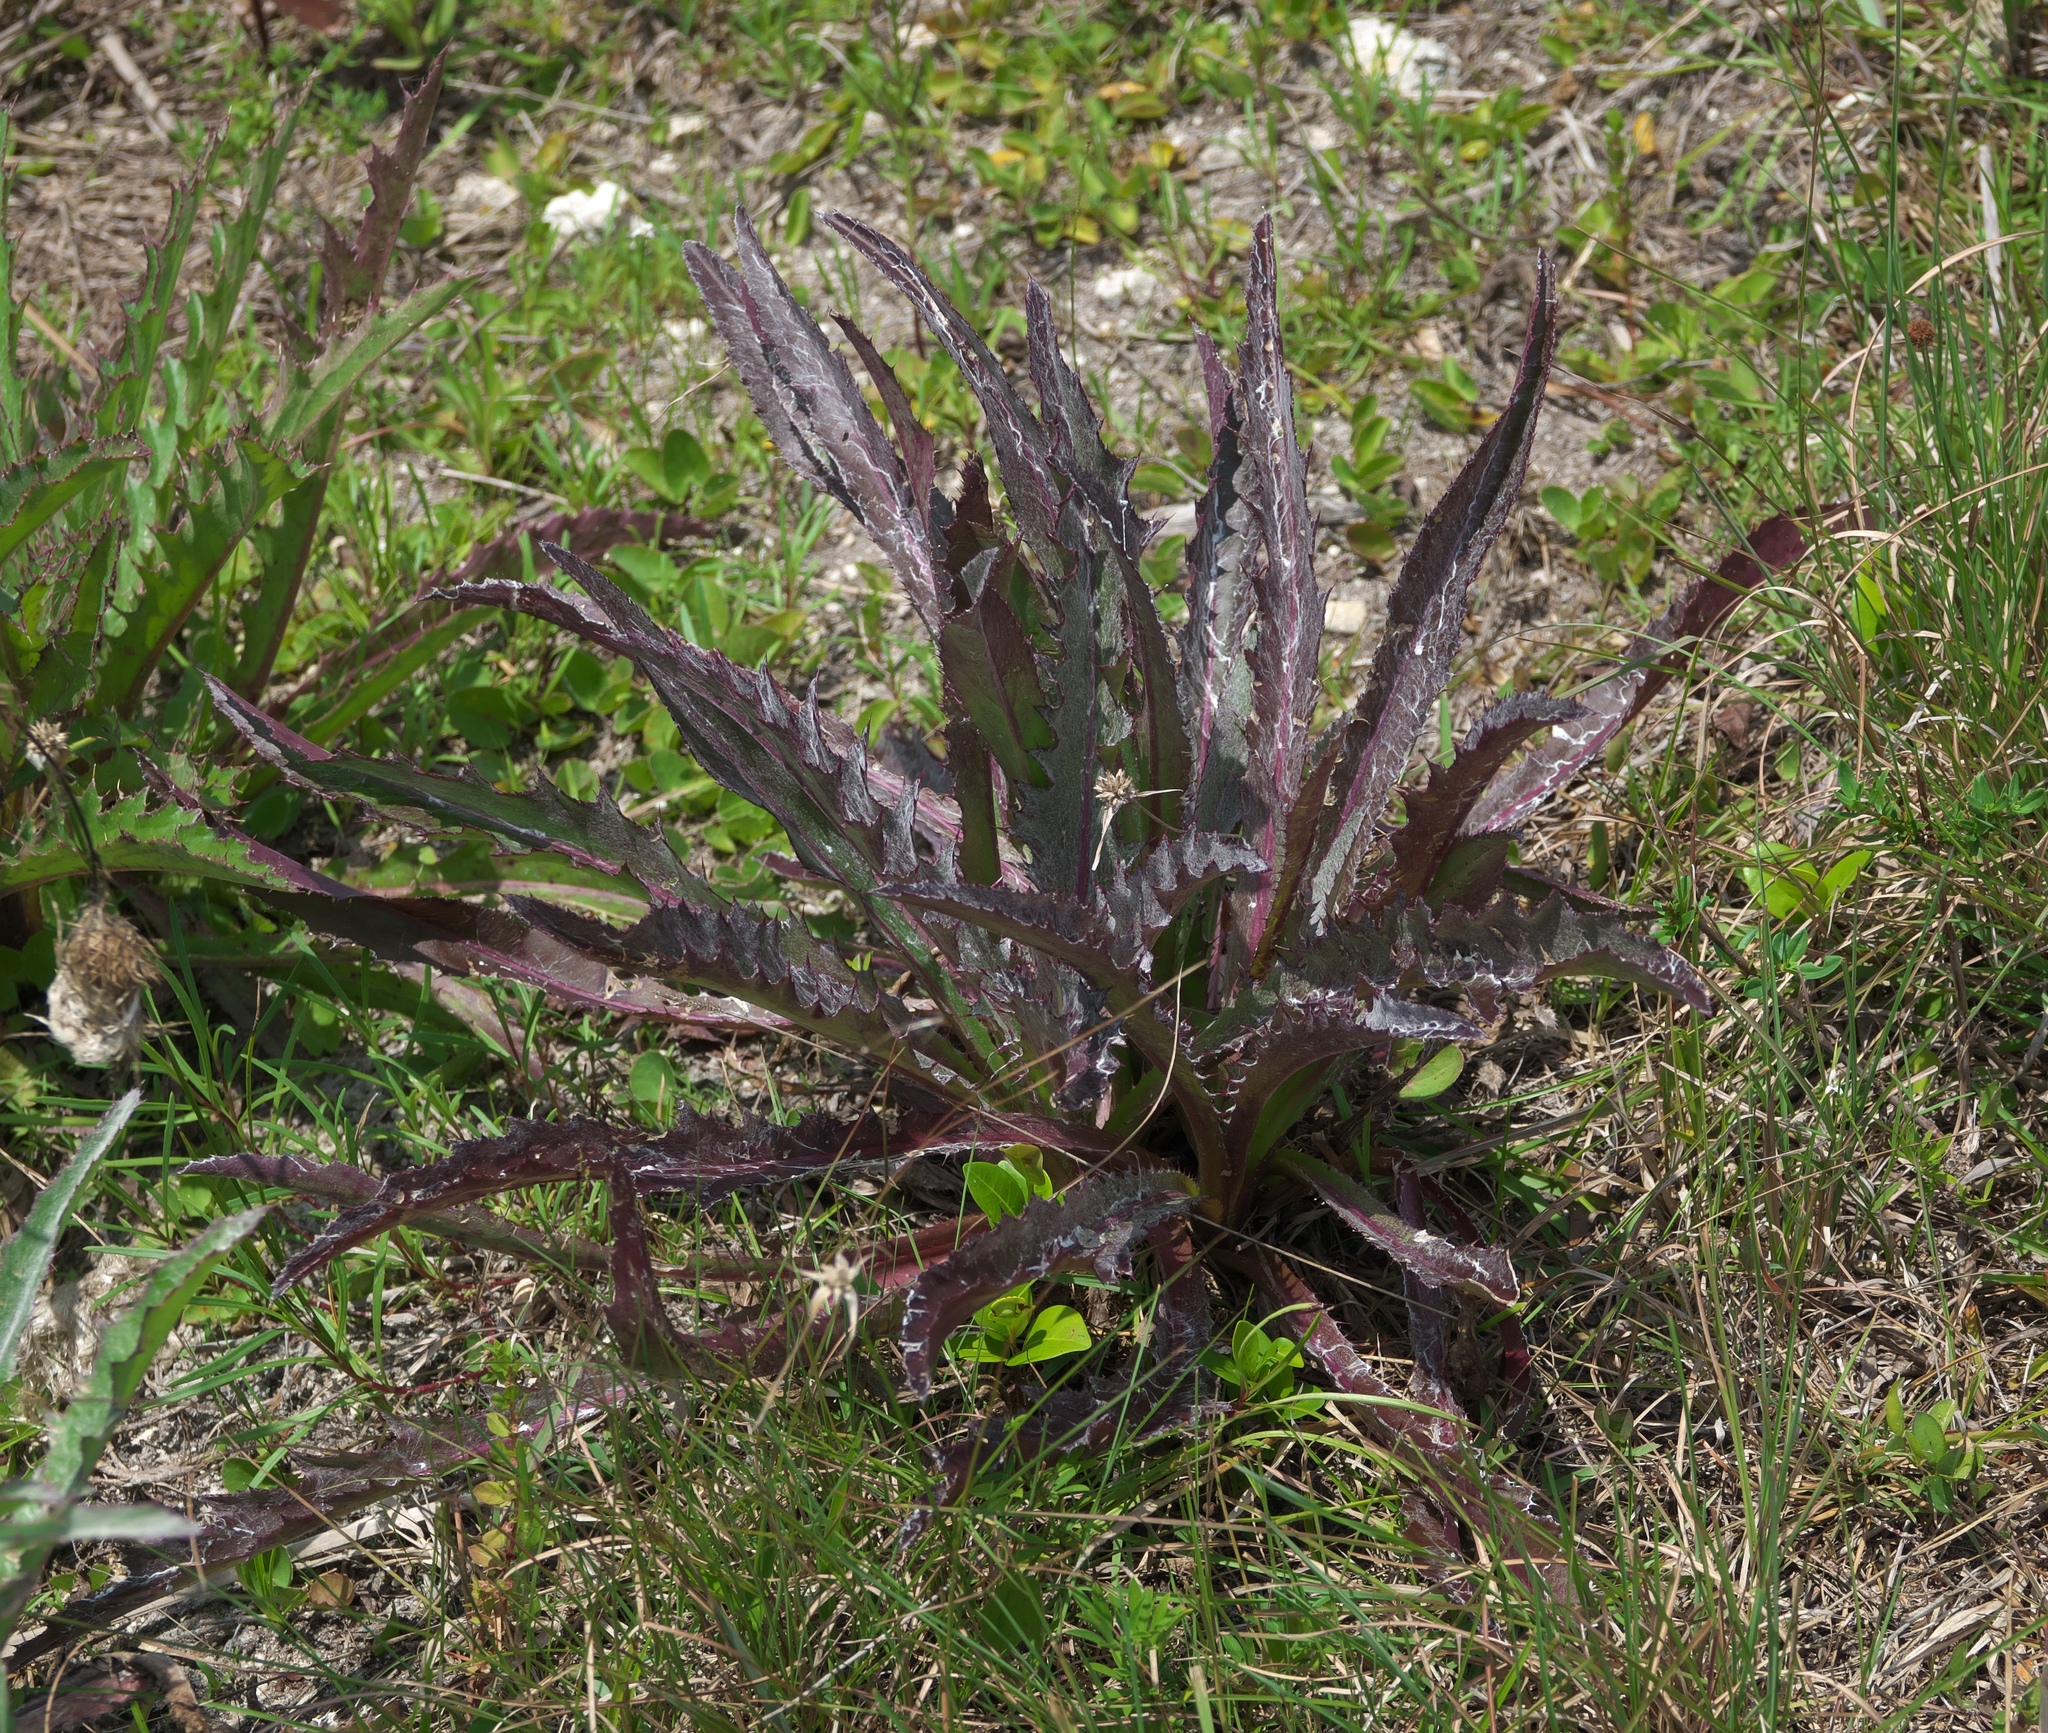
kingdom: Plantae
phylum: Tracheophyta
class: Magnoliopsida
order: Asterales
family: Asteraceae
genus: Cirsium
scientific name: Cirsium horridulum
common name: Bristly thistle
